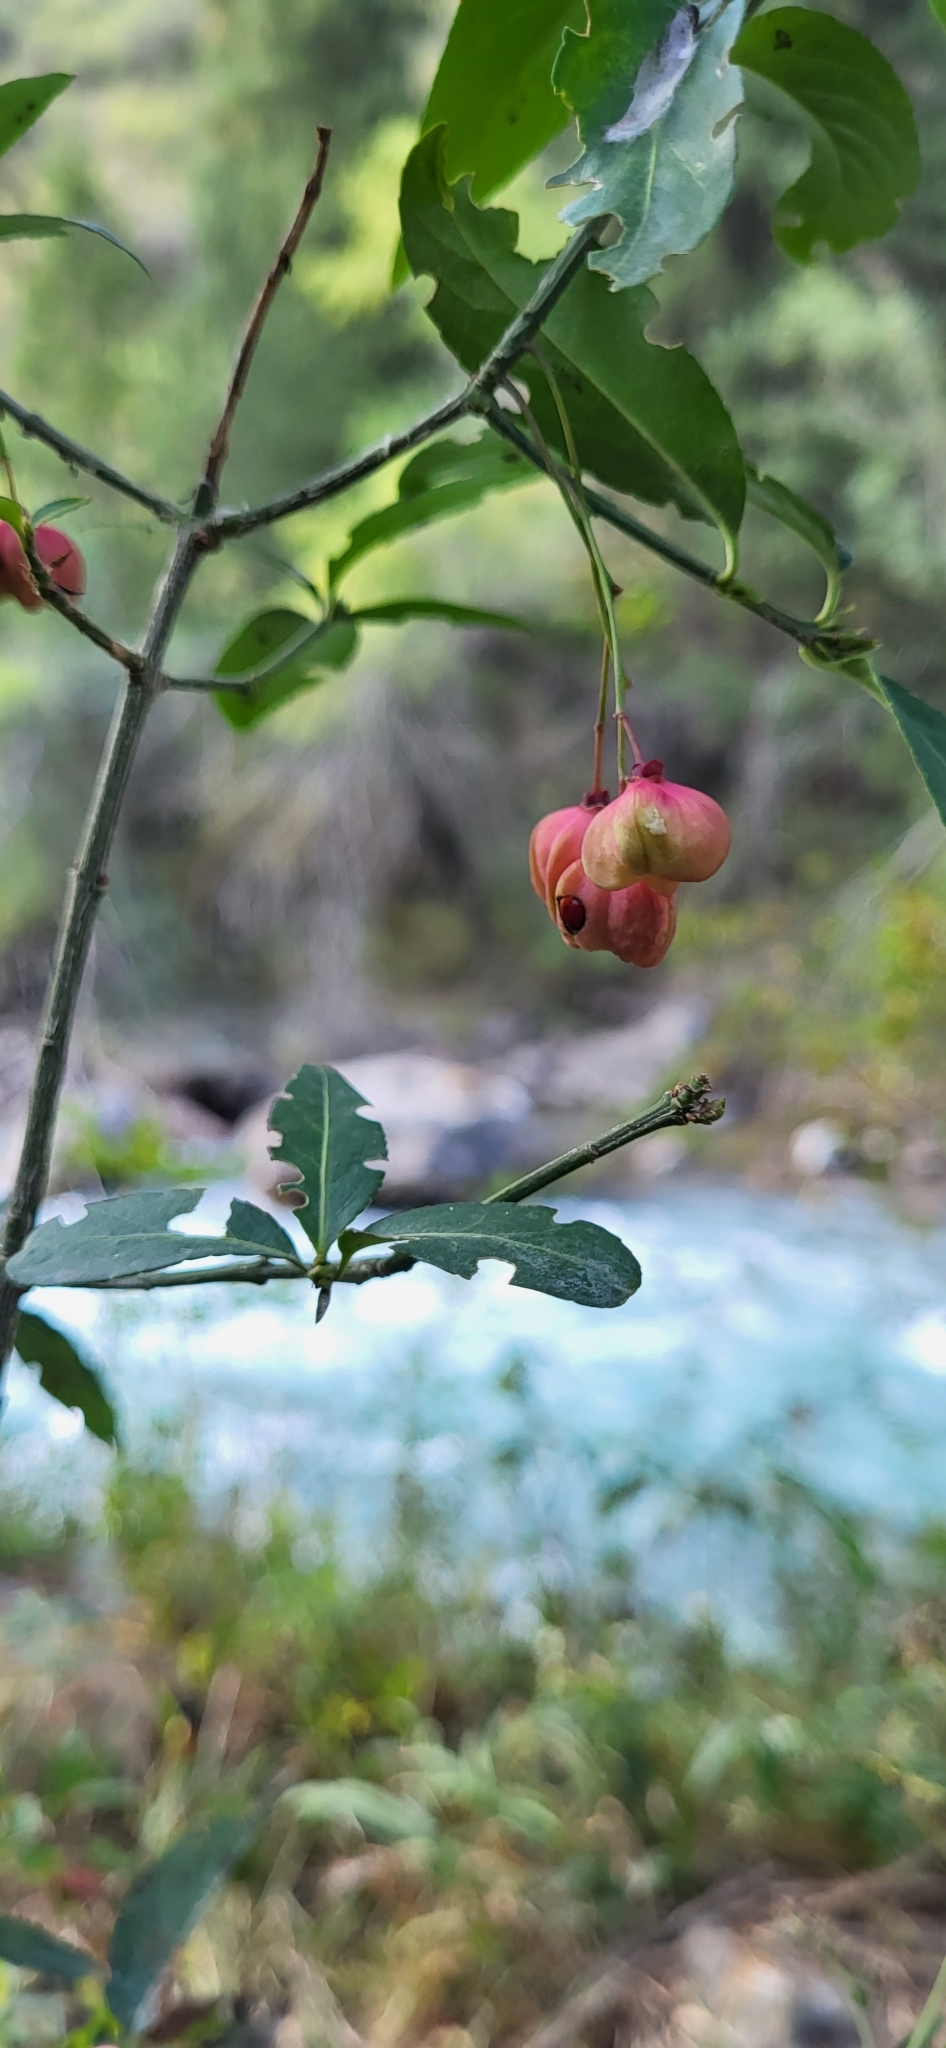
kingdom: Plantae
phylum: Tracheophyta
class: Magnoliopsida
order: Celastrales
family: Celastraceae
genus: Euonymus
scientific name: Euonymus semenovii
